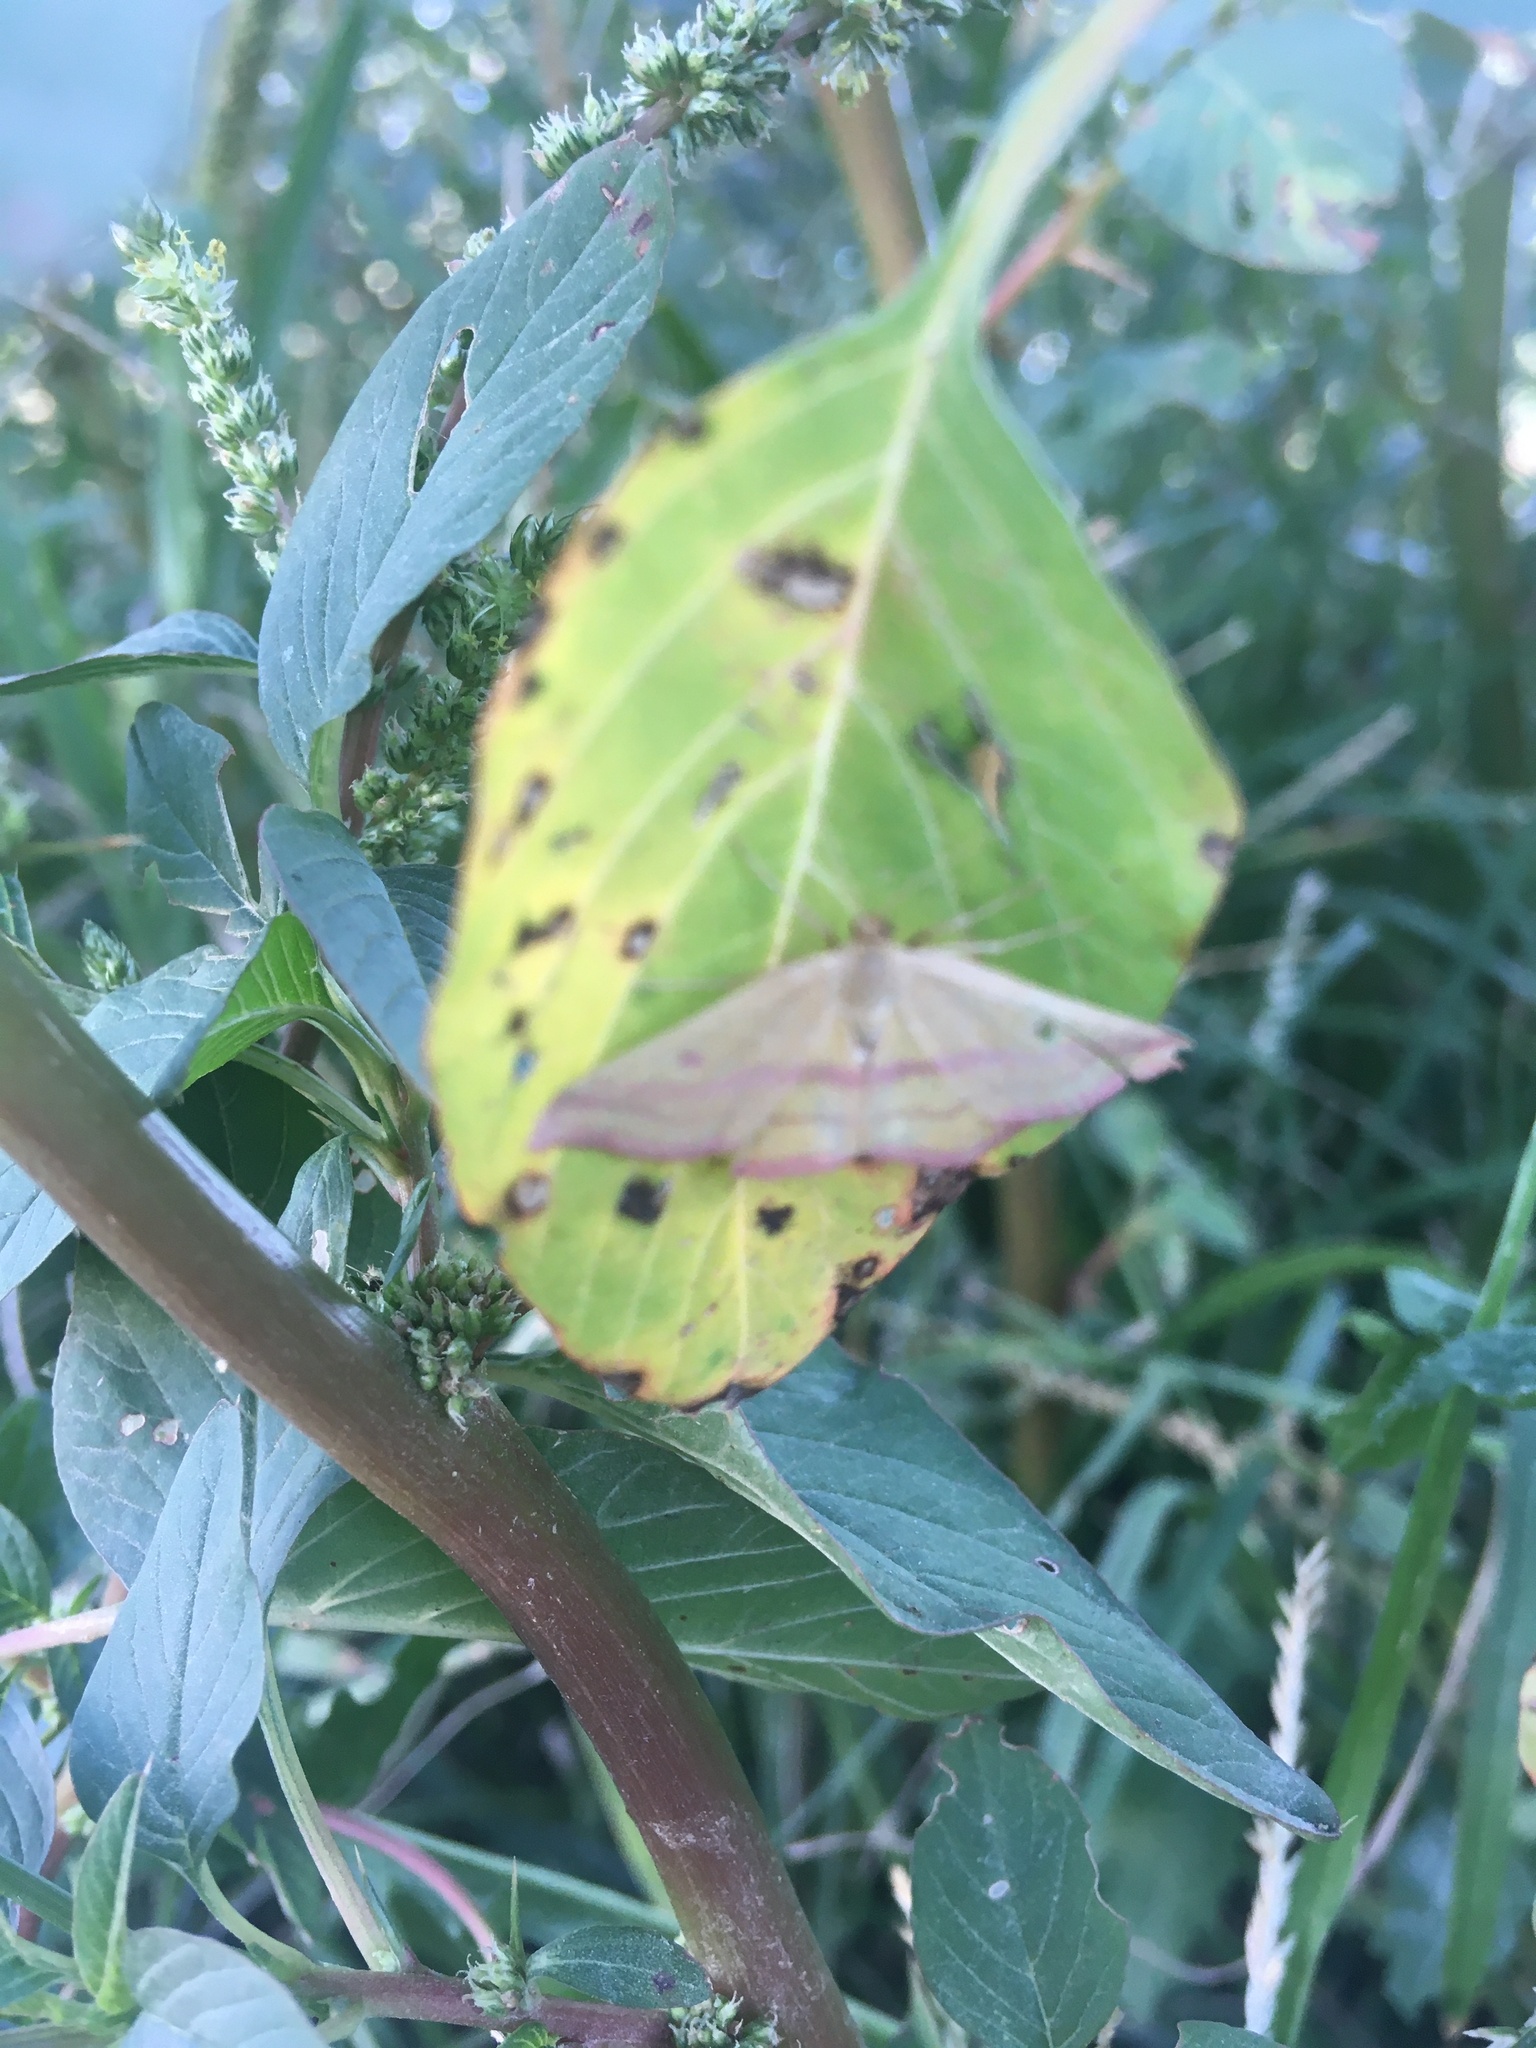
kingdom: Animalia
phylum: Arthropoda
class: Insecta
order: Lepidoptera
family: Geometridae
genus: Haematopis
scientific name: Haematopis grataria
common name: Chickweed geometer
